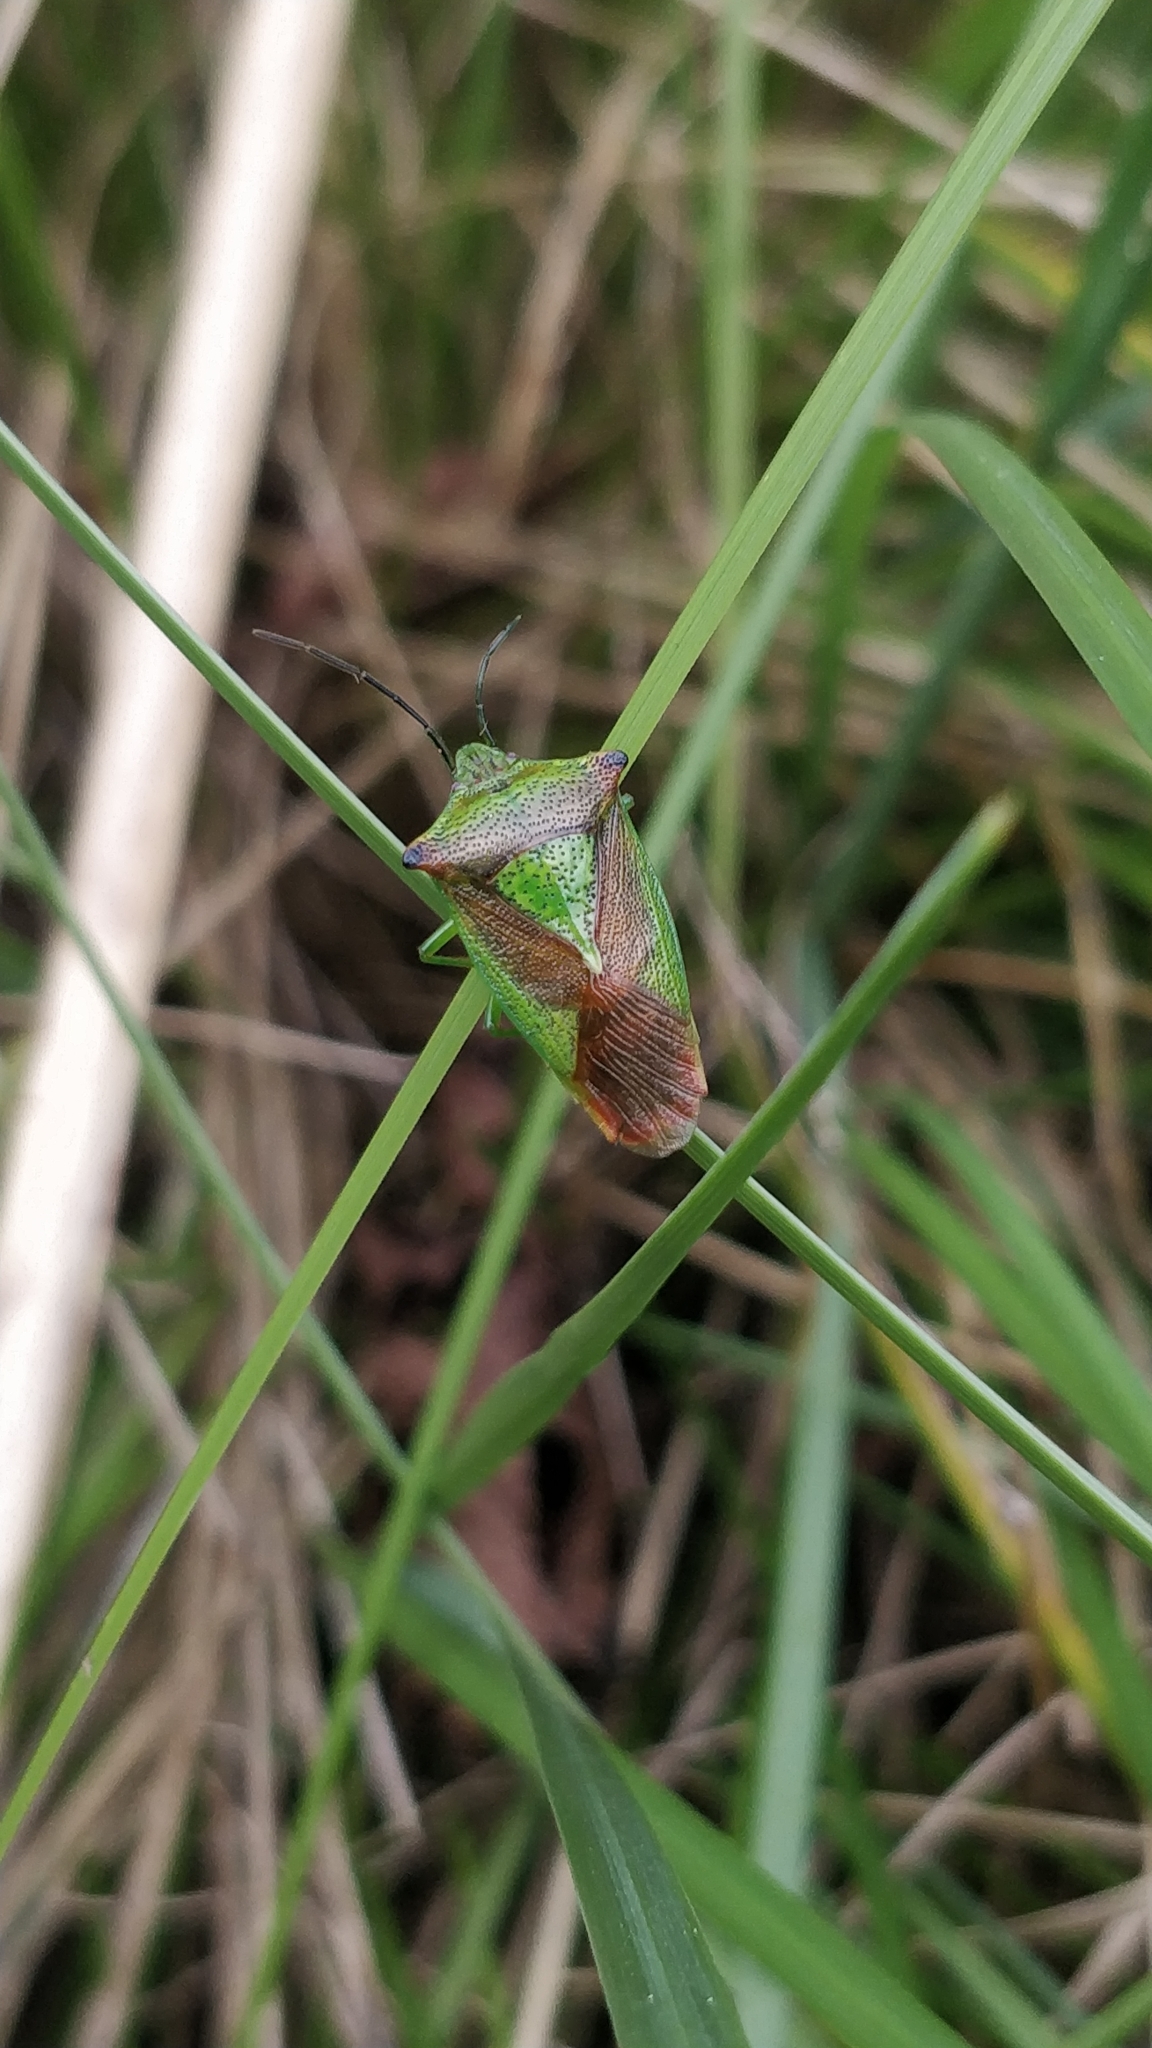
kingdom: Animalia
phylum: Arthropoda
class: Insecta
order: Hemiptera
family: Acanthosomatidae
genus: Acanthosoma
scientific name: Acanthosoma haemorrhoidale
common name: Hawthorn shieldbug
